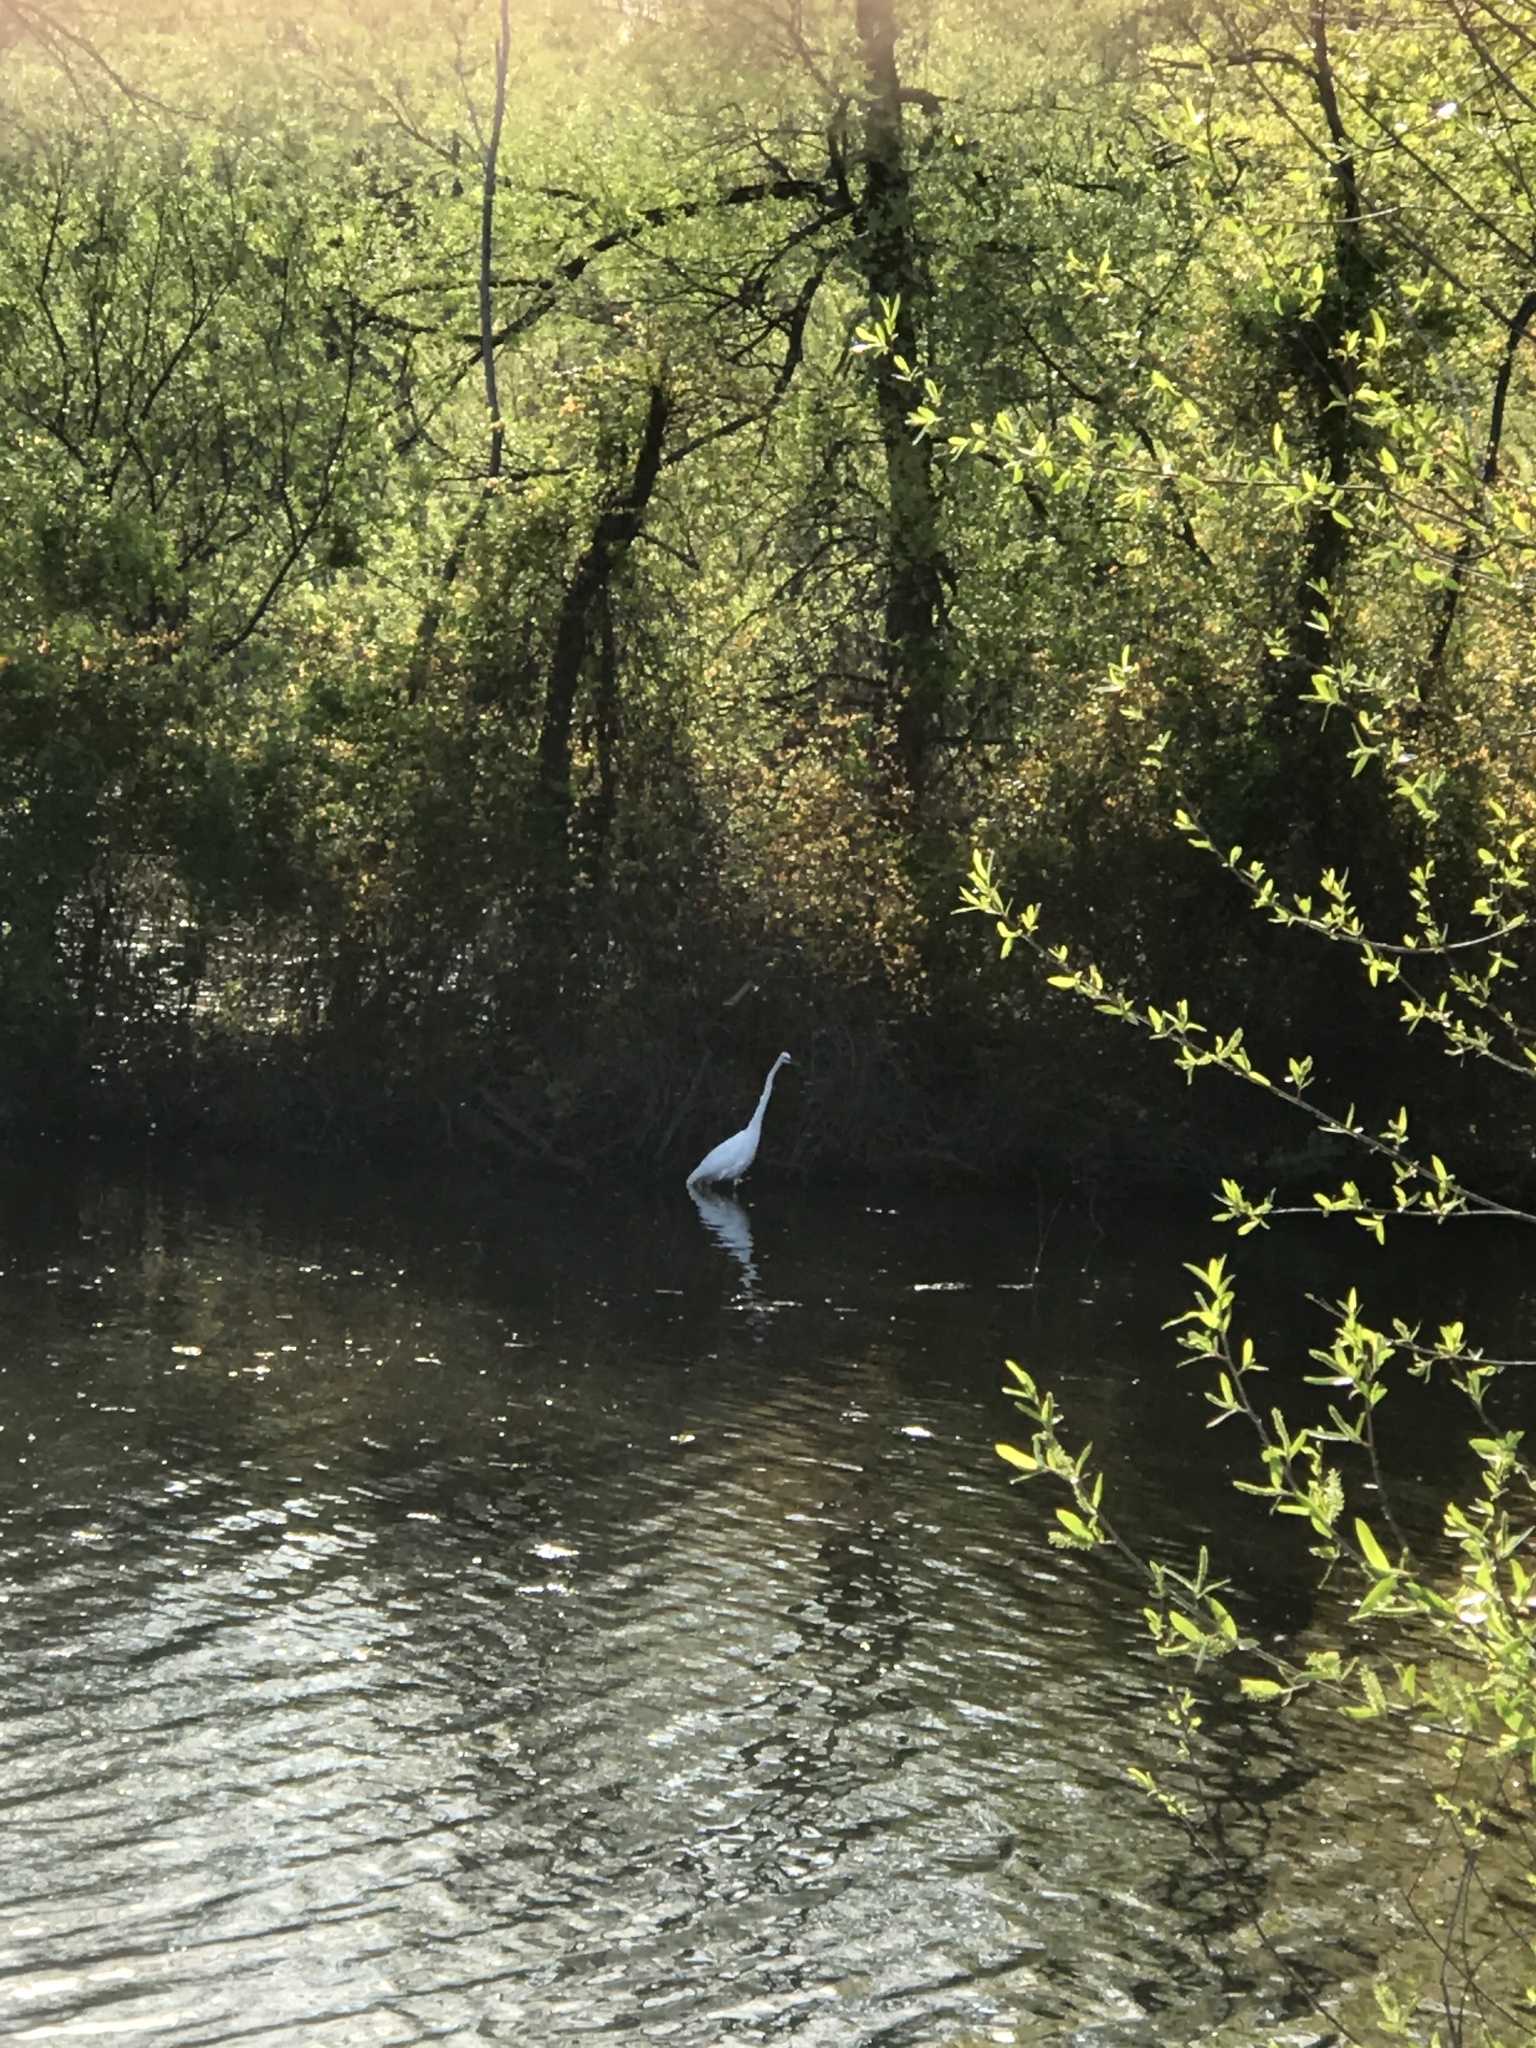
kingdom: Animalia
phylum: Chordata
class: Aves
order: Pelecaniformes
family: Ardeidae
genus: Ardea
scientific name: Ardea alba
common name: Great egret
